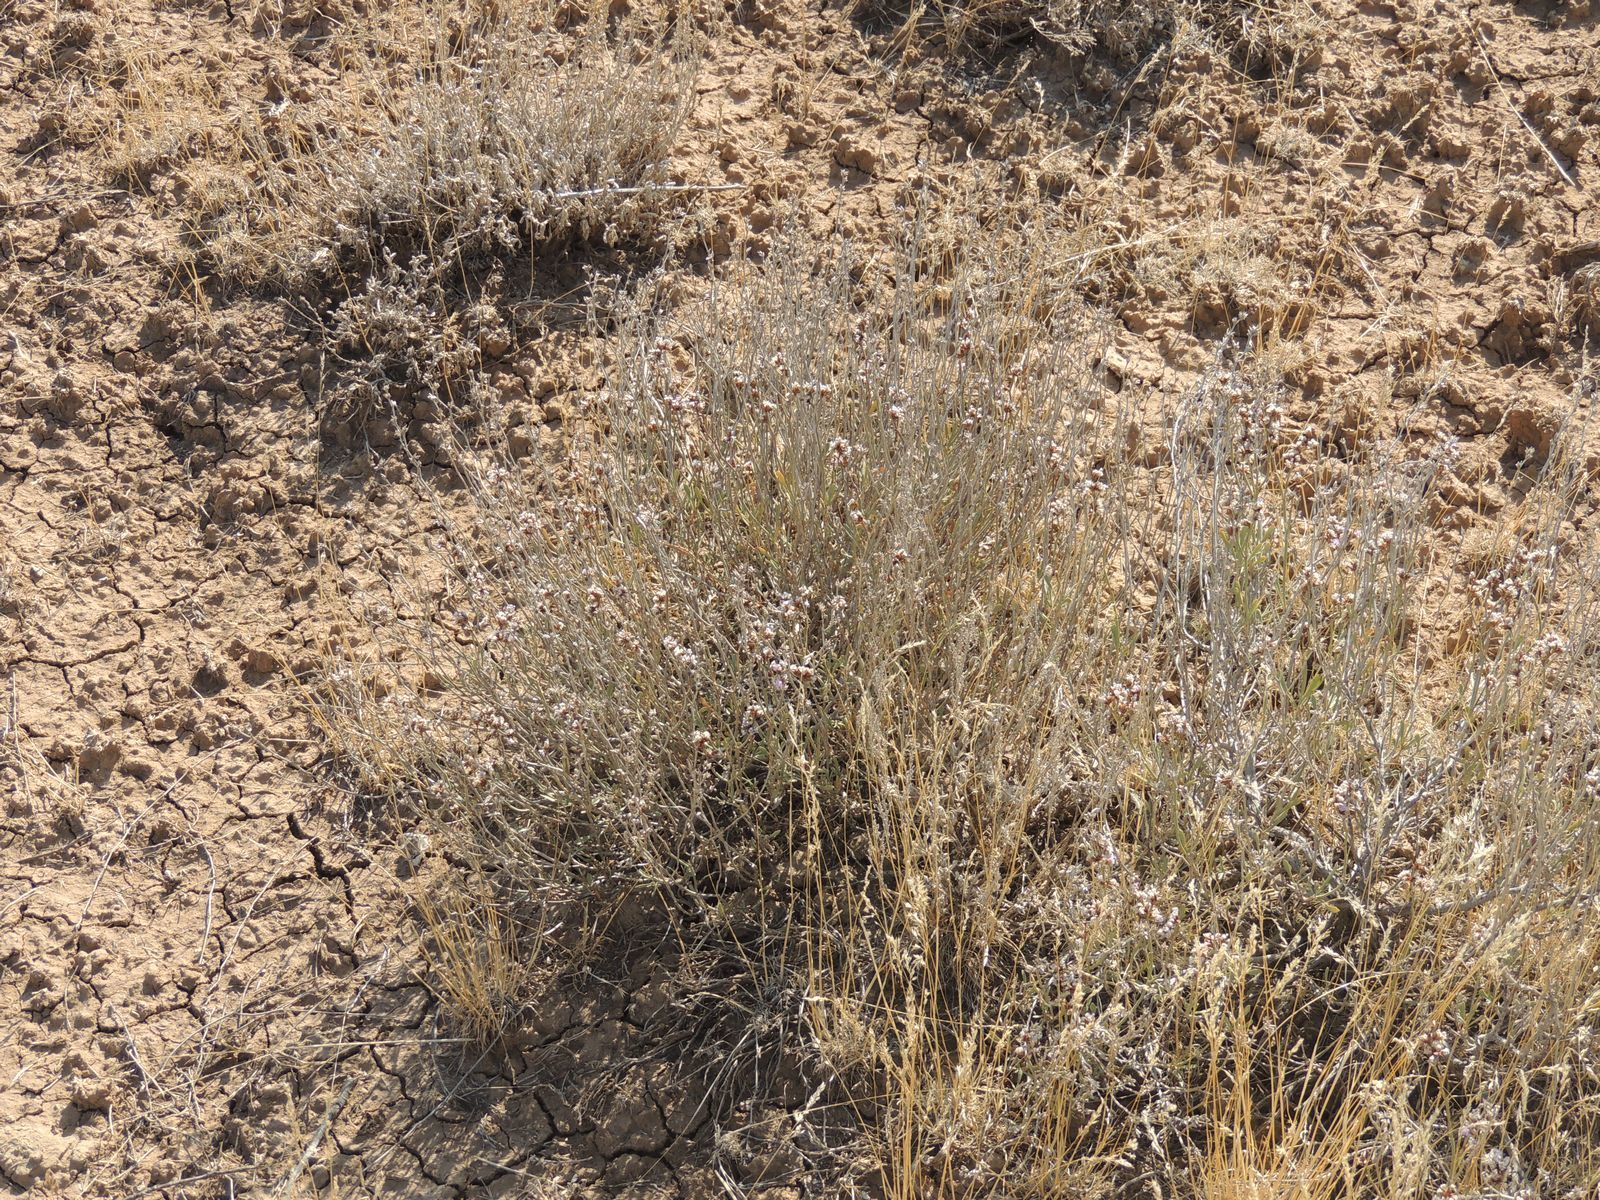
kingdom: Plantae
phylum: Tracheophyta
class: Magnoliopsida
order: Caryophyllales
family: Plumbaginaceae
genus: Limonium
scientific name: Limonium suffruticosum
